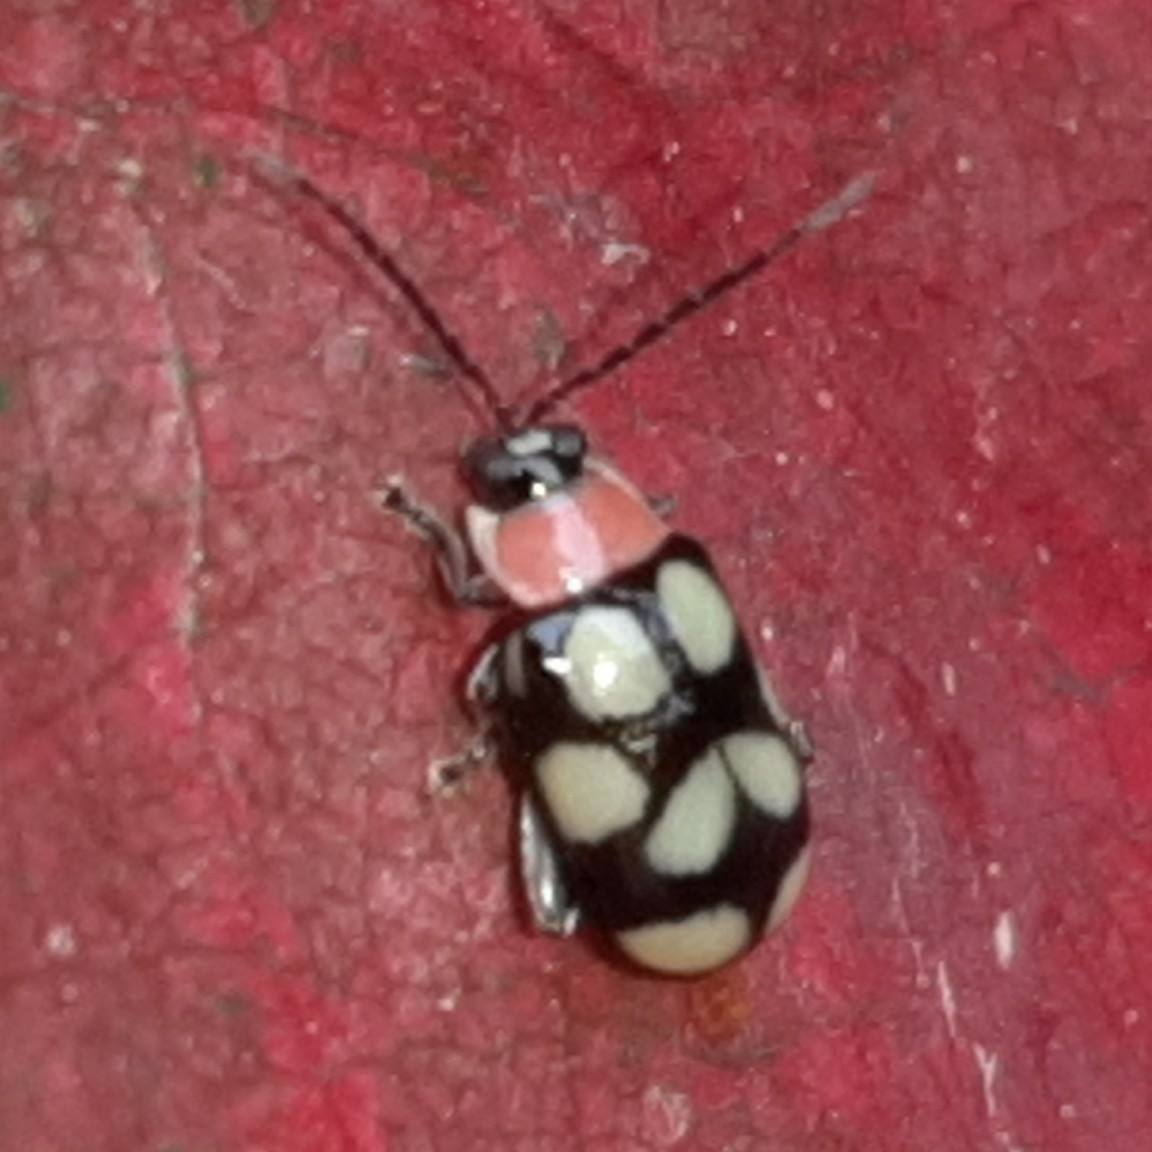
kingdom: Animalia
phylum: Arthropoda
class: Insecta
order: Coleoptera
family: Chrysomelidae
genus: Omophoita
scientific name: Omophoita aequinoctialis
